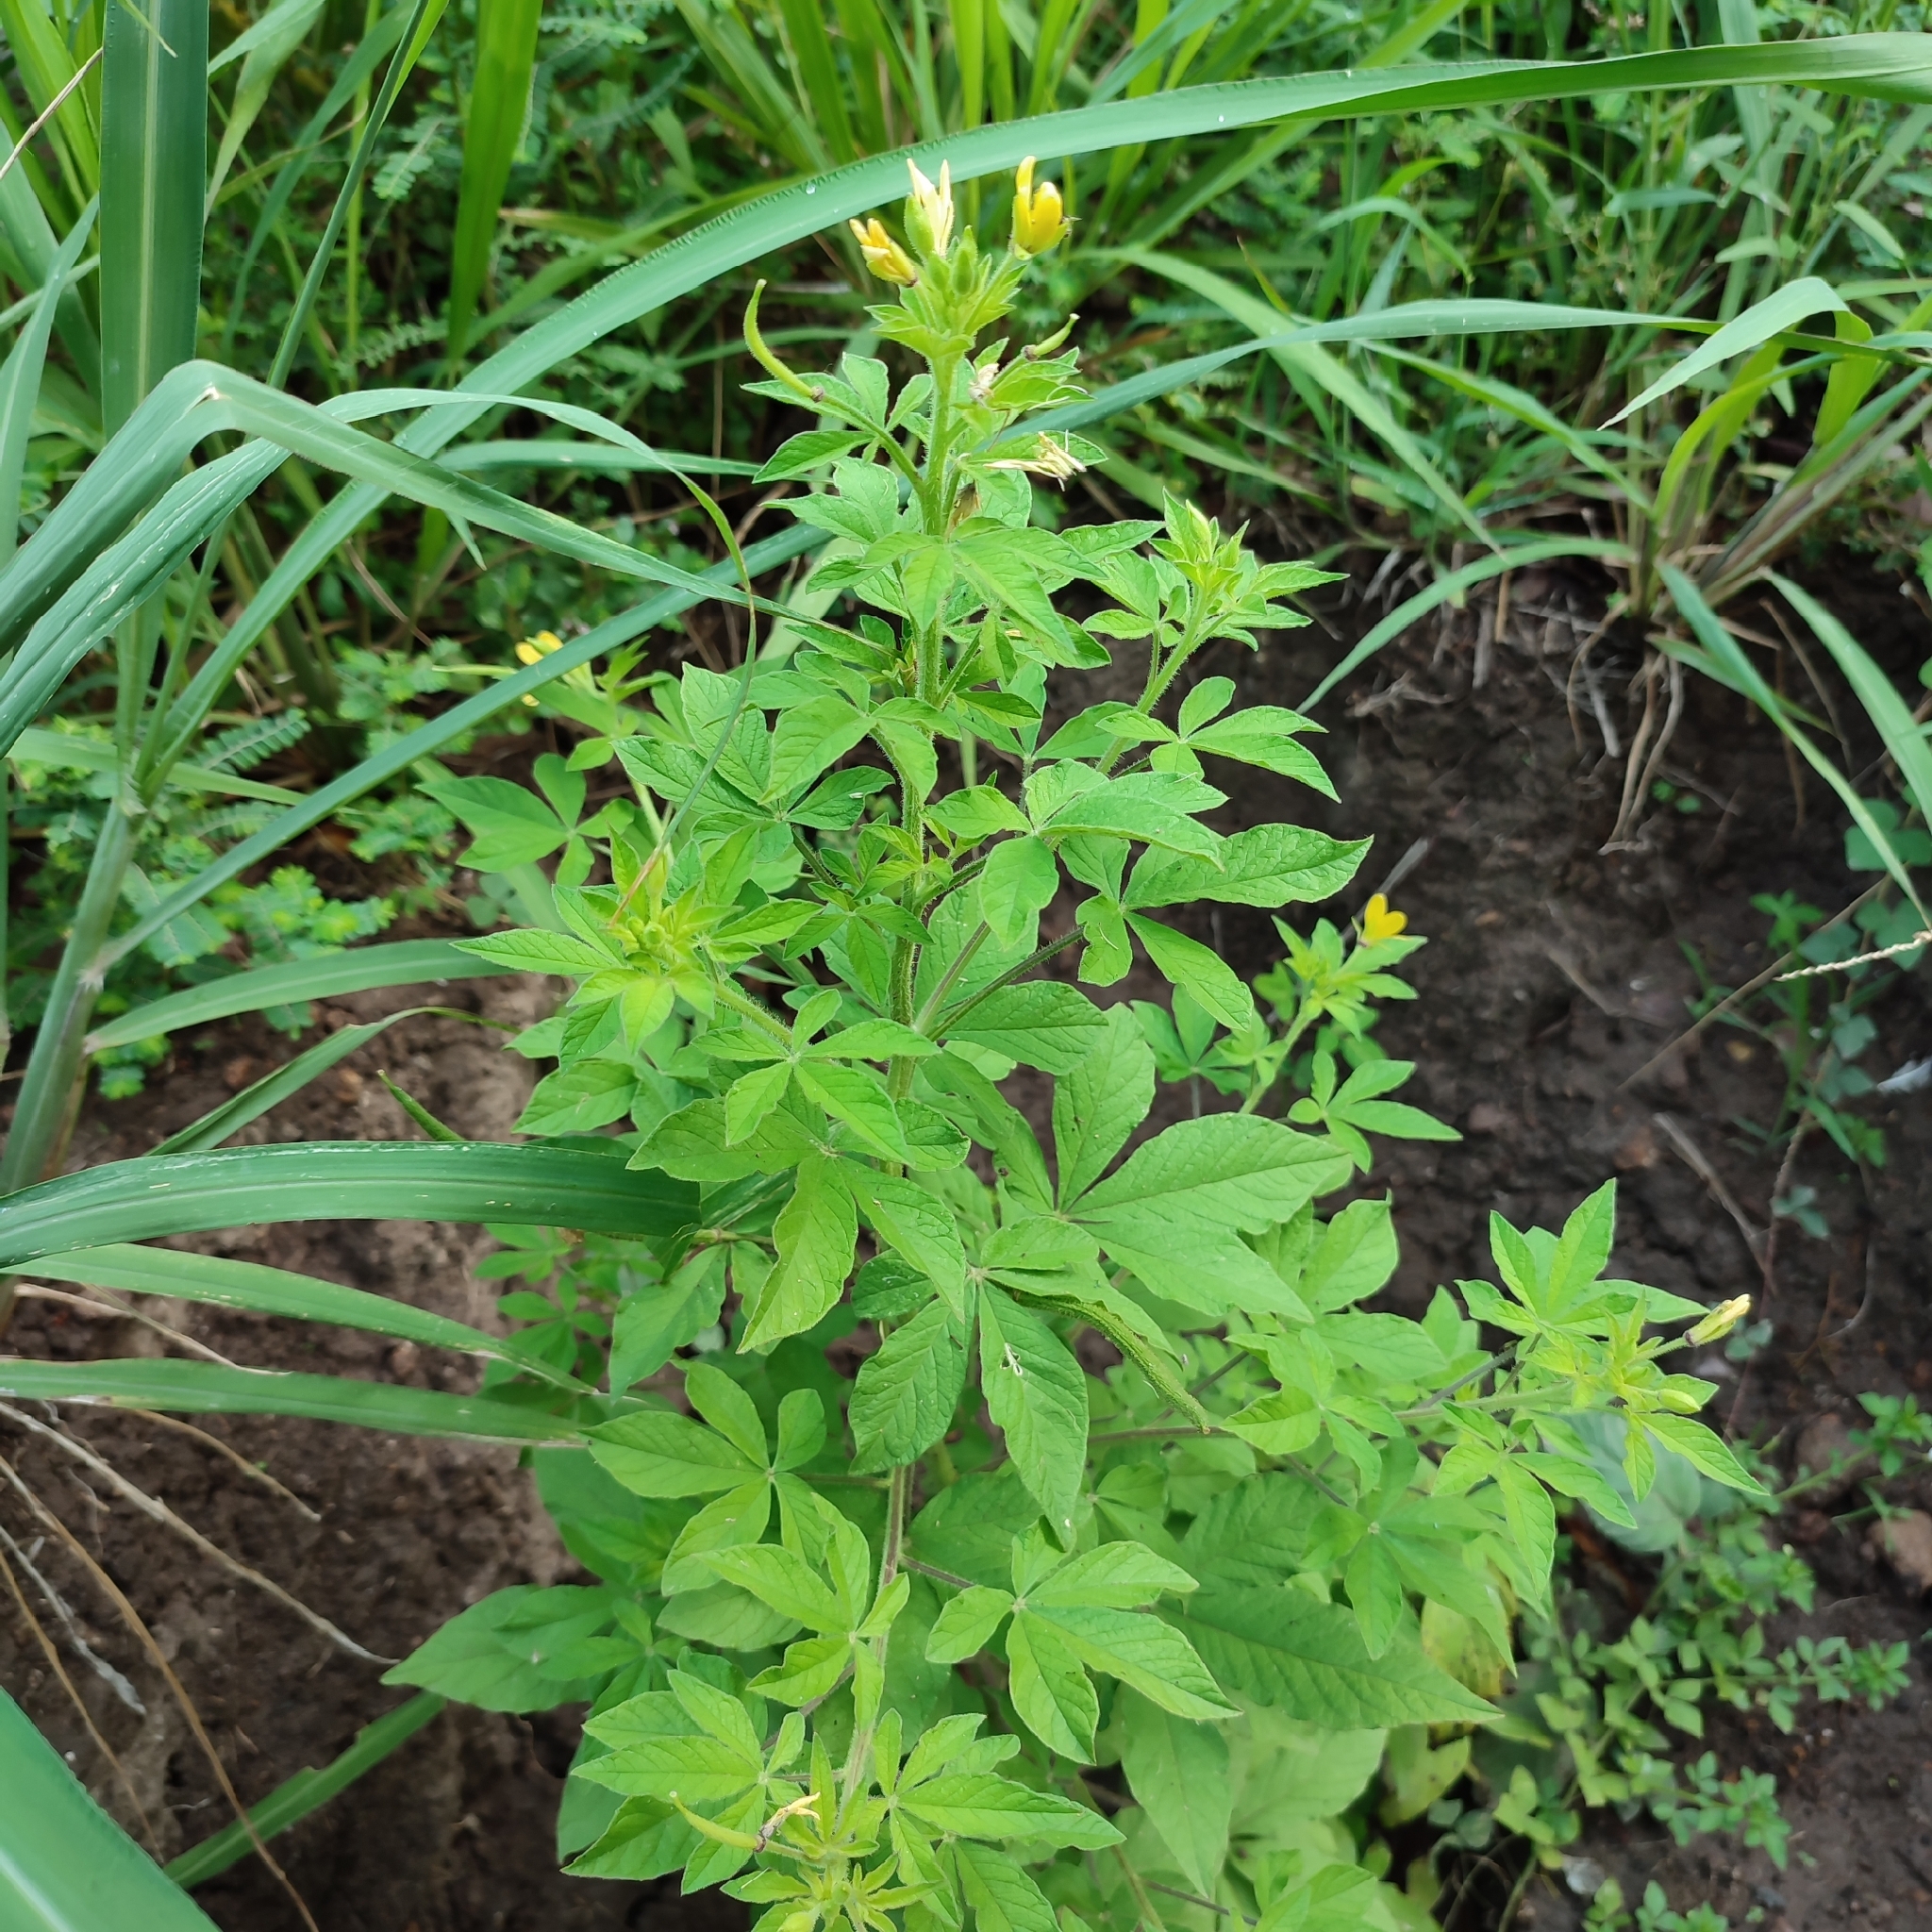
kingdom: Plantae
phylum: Tracheophyta
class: Magnoliopsida
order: Brassicales
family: Cleomaceae
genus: Arivela
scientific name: Arivela viscosa
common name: Asian spiderflower
